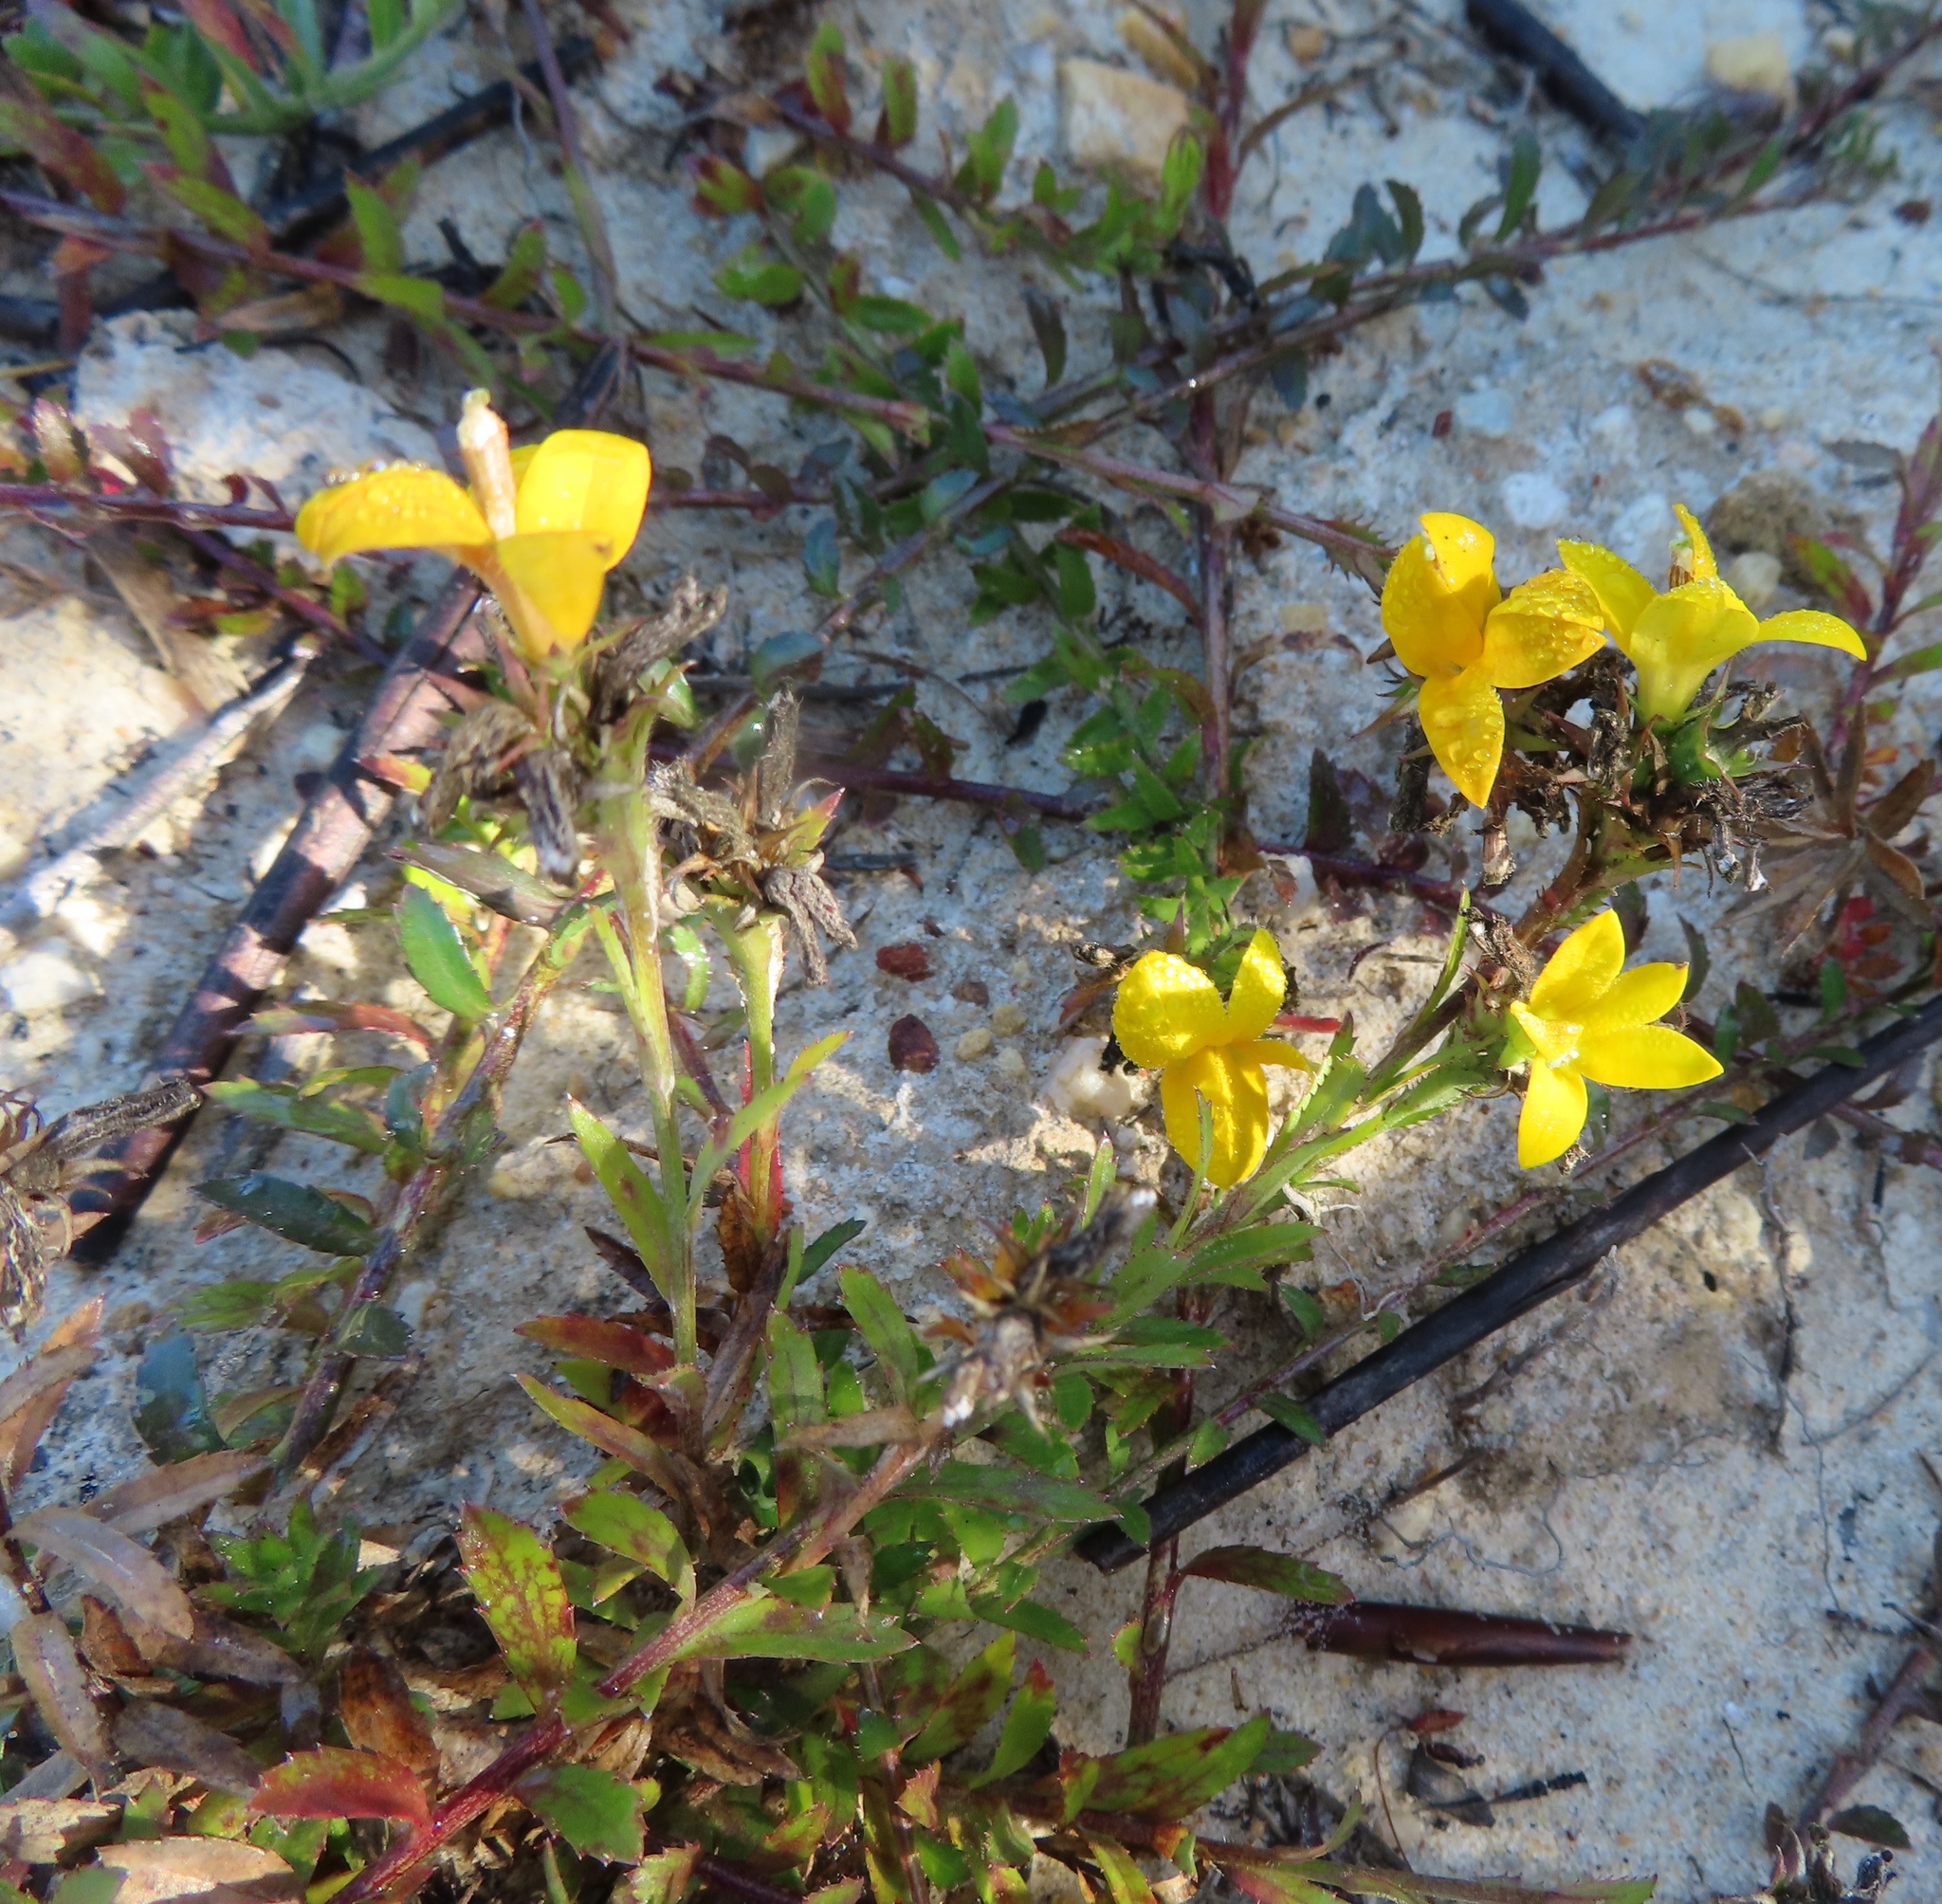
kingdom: Plantae
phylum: Tracheophyta
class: Magnoliopsida
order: Asterales
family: Campanulaceae
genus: Monopsis
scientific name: Monopsis lutea
